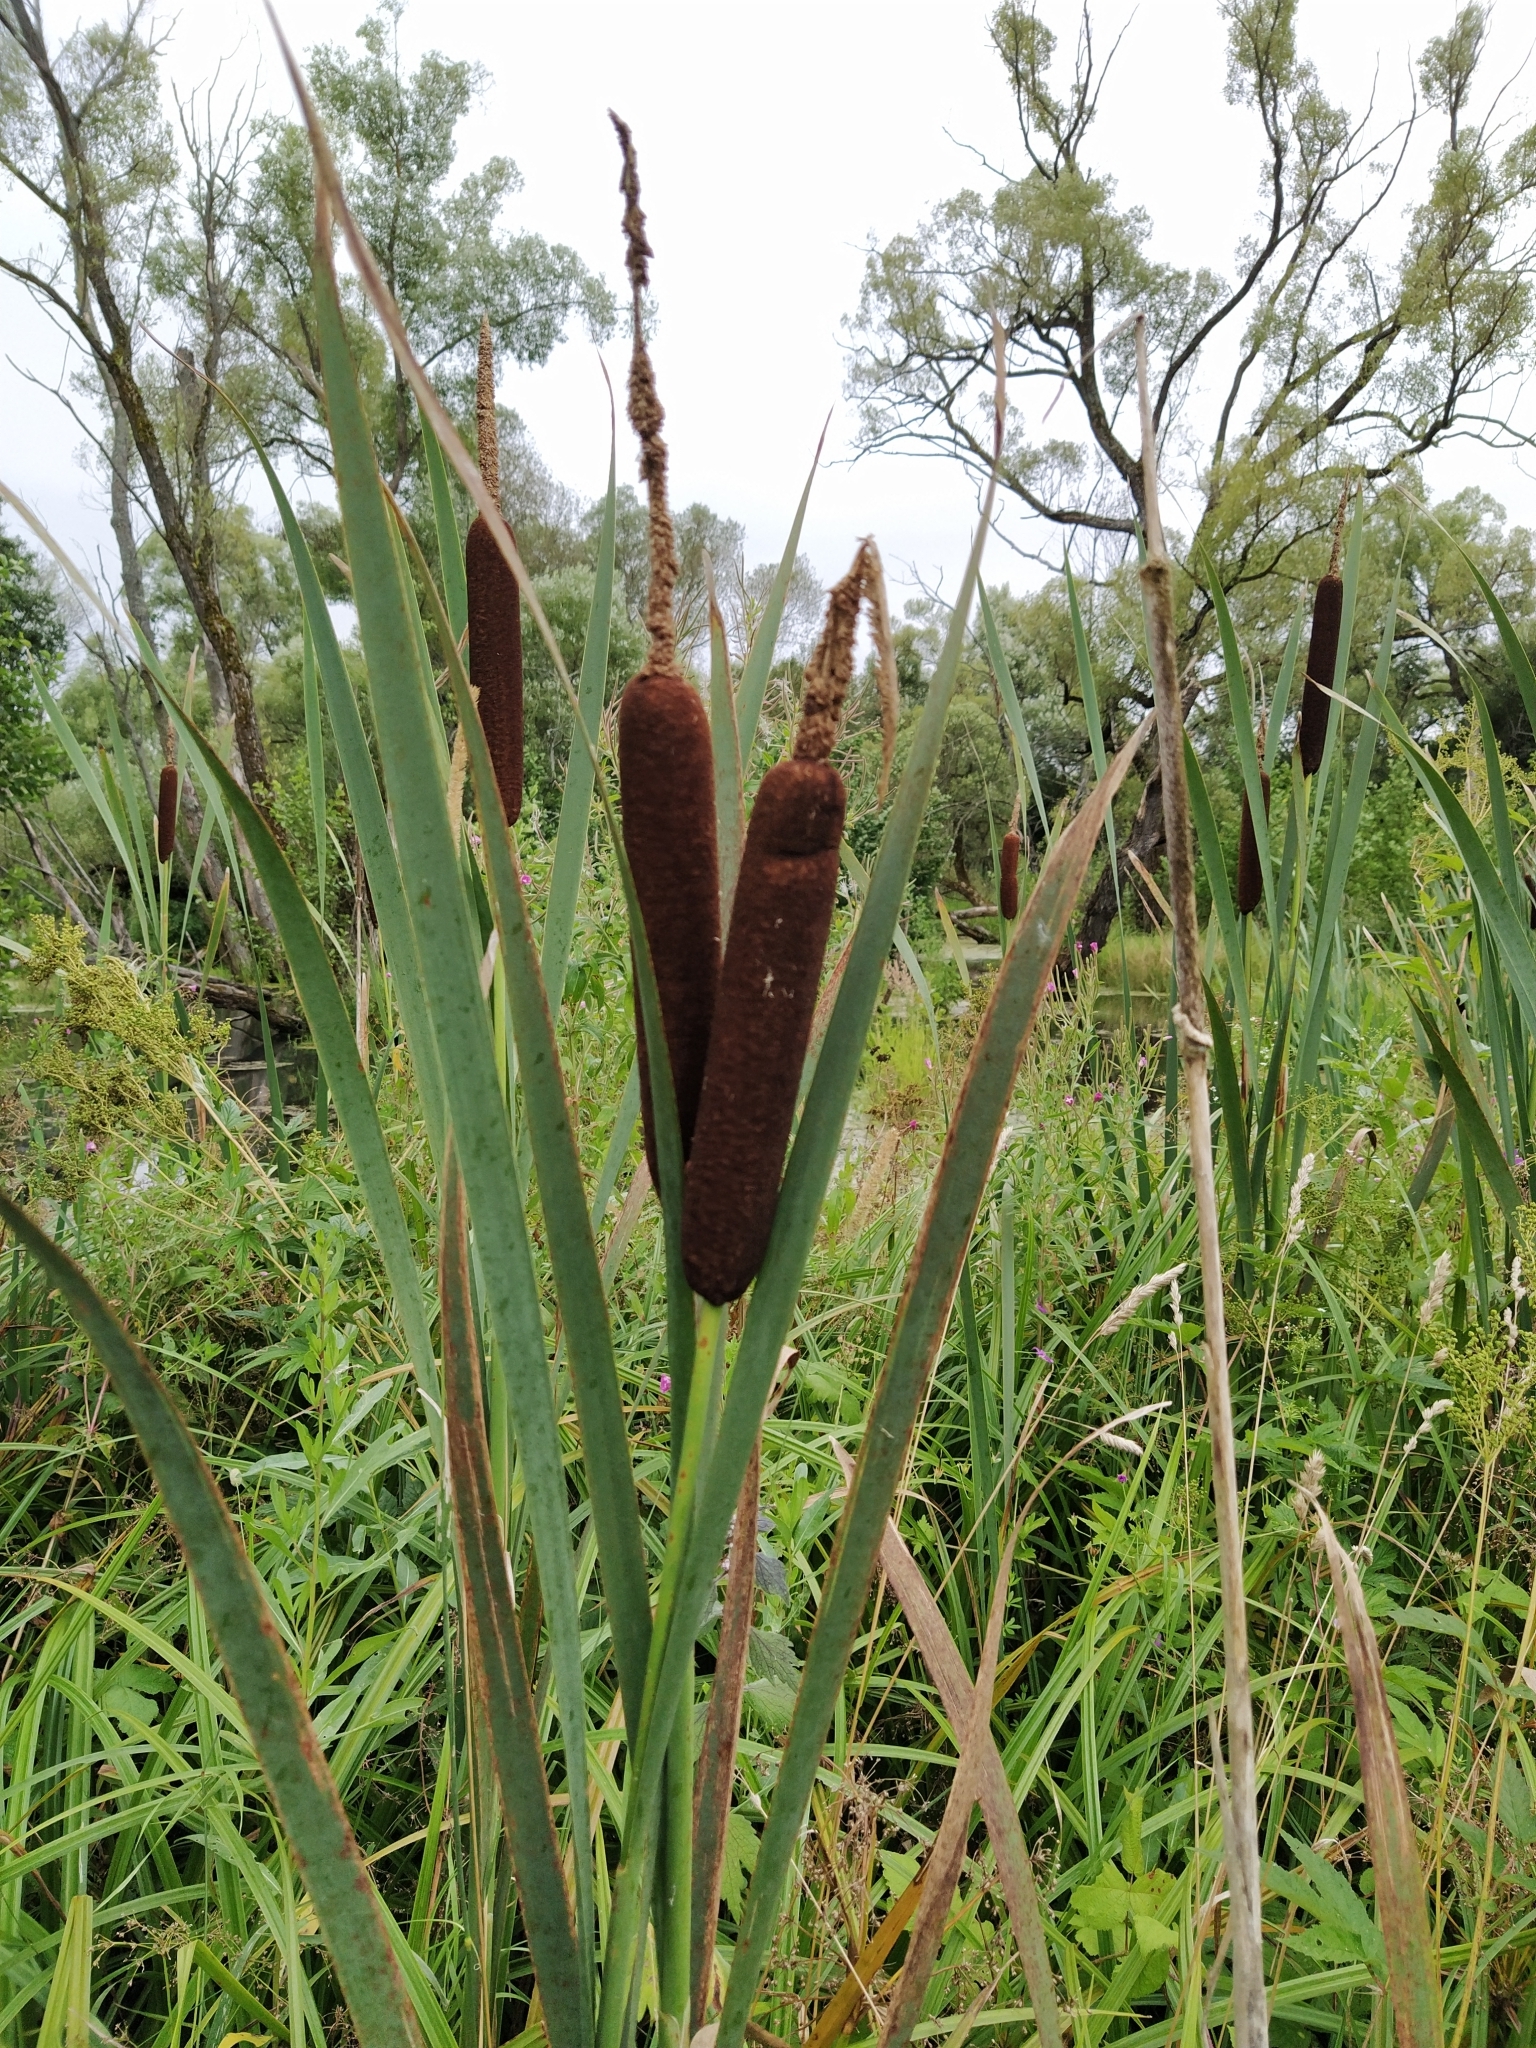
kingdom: Plantae
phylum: Tracheophyta
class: Liliopsida
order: Poales
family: Typhaceae
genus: Typha
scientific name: Typha latifolia
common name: Broadleaf cattail
